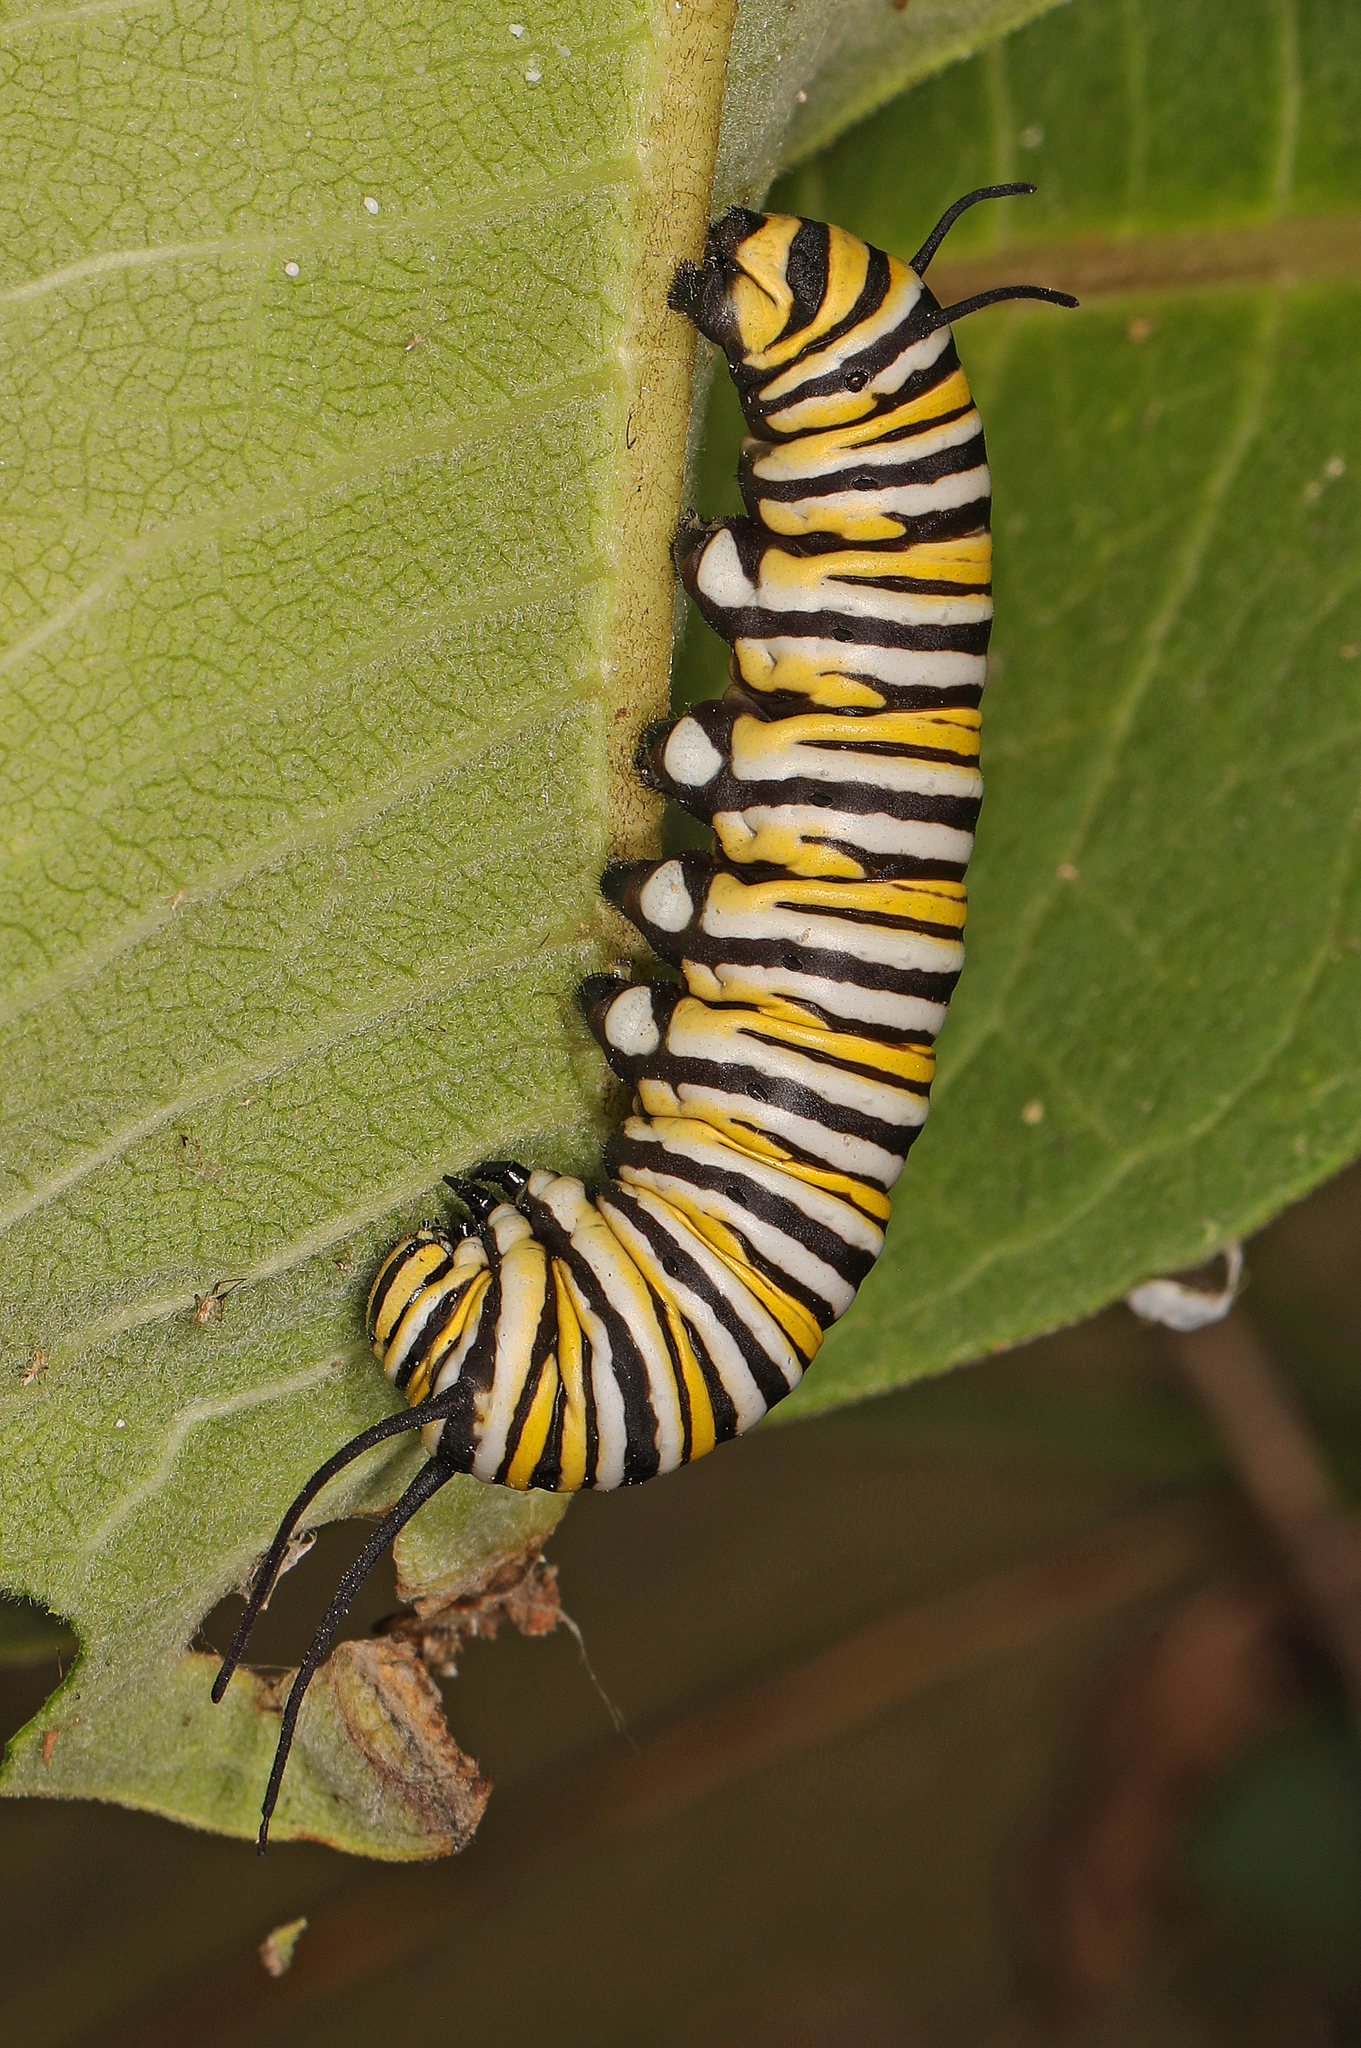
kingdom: Animalia
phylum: Arthropoda
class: Insecta
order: Lepidoptera
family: Nymphalidae
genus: Danaus
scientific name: Danaus plexippus
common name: Monarch
